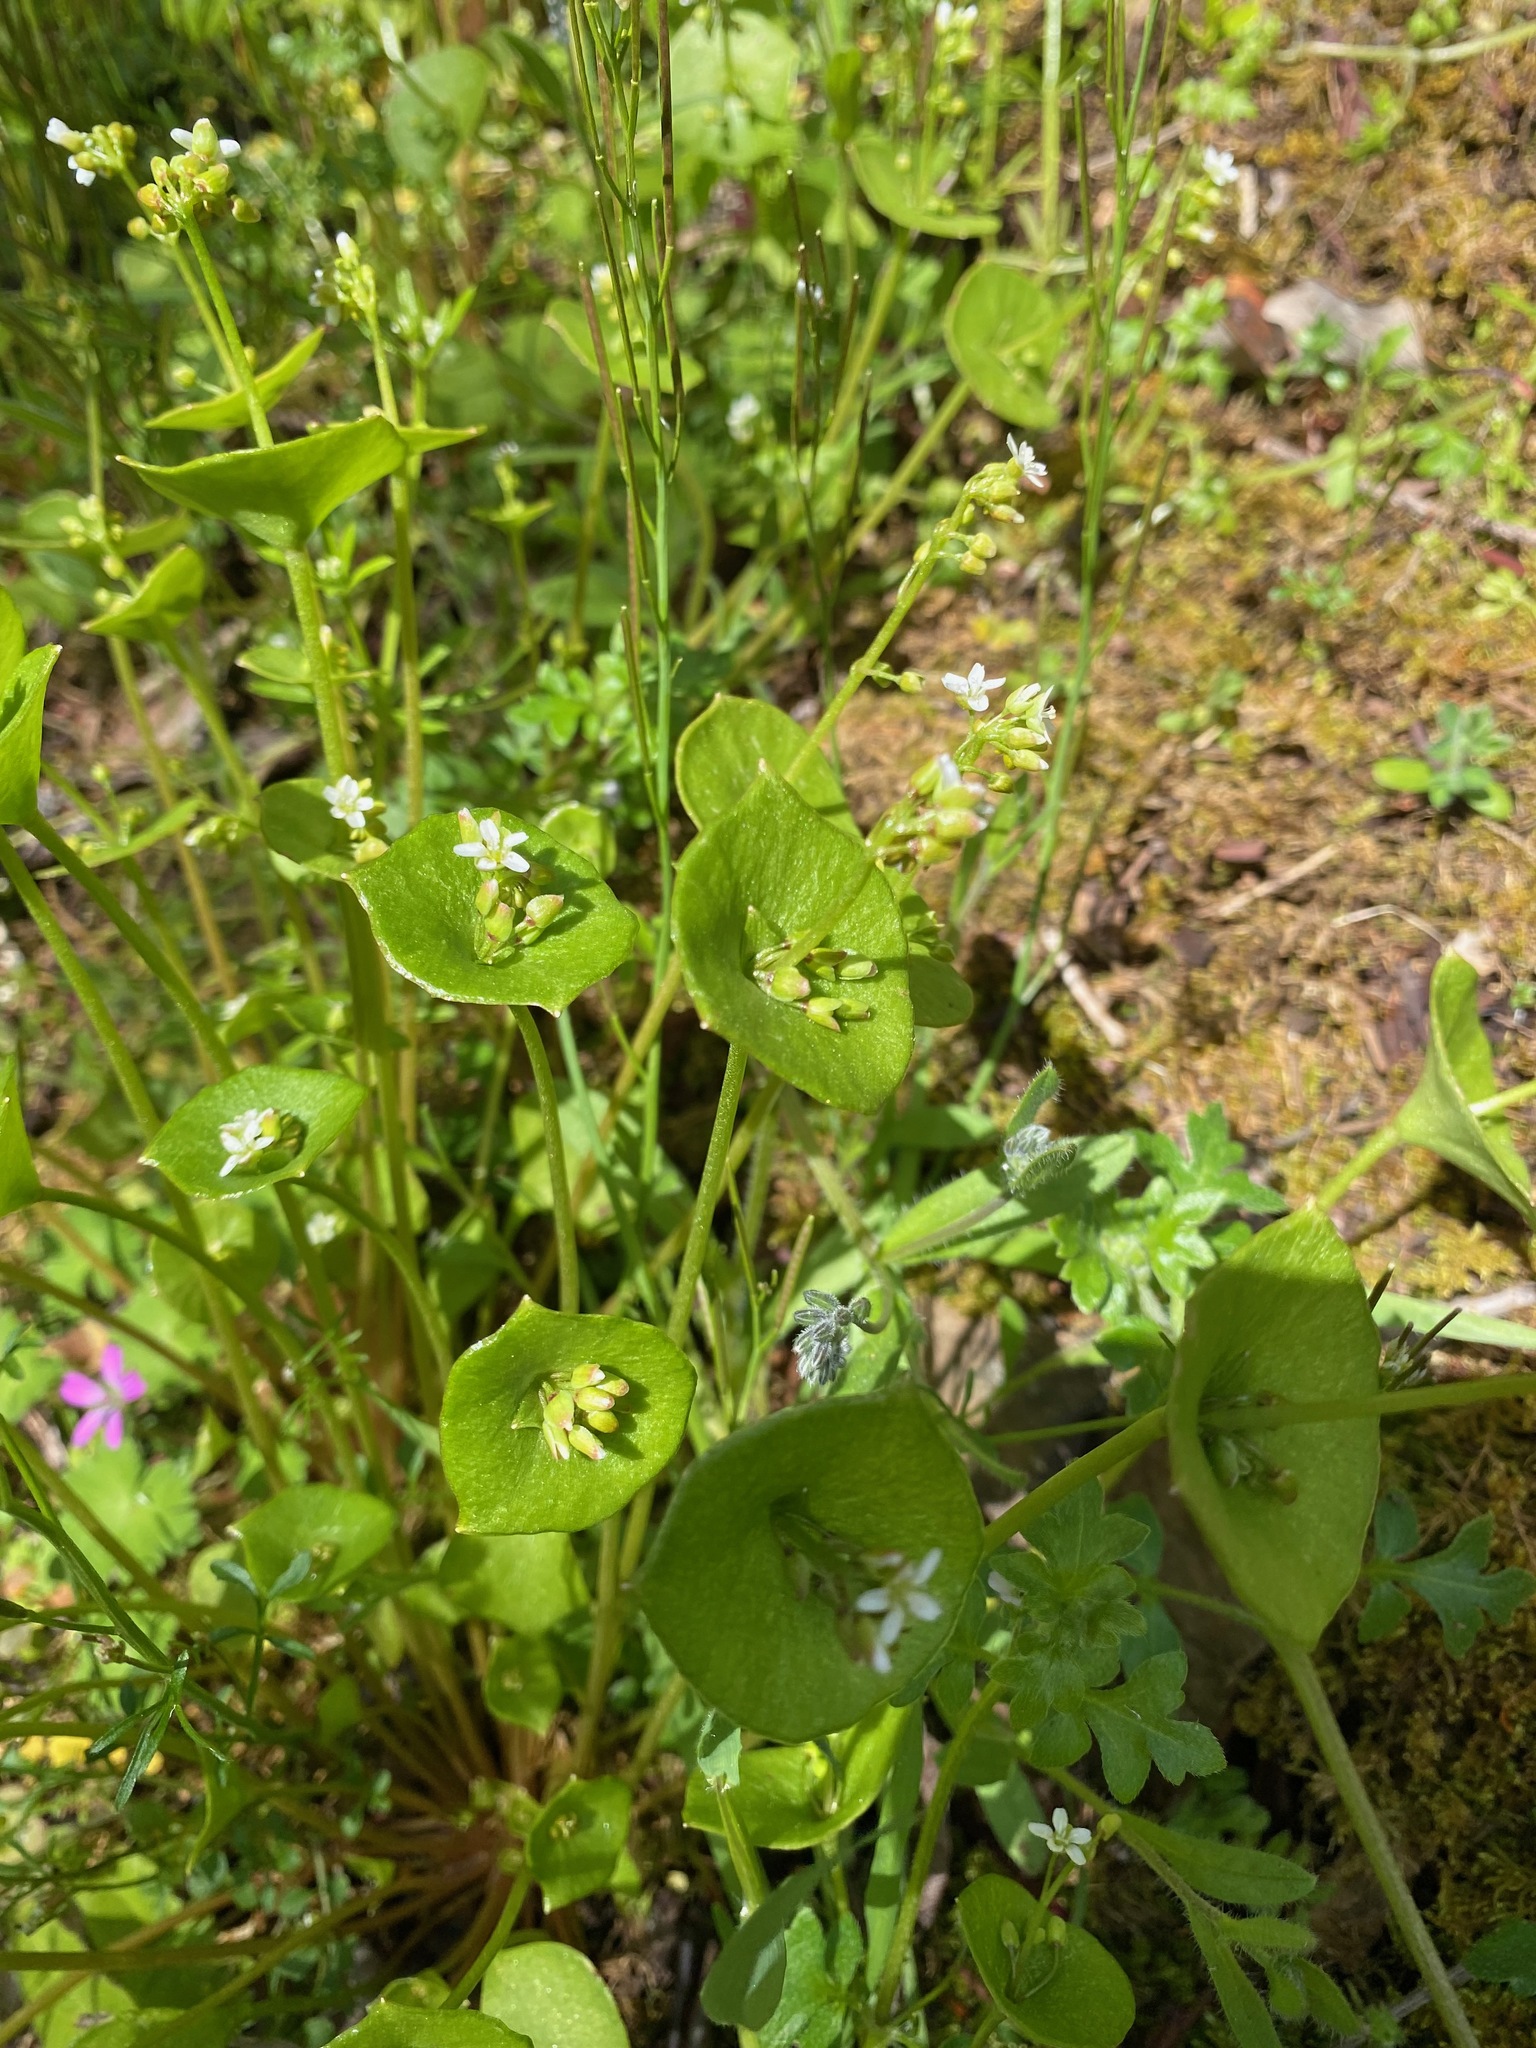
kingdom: Plantae
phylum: Tracheophyta
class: Magnoliopsida
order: Caryophyllales
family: Montiaceae
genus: Claytonia
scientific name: Claytonia perfoliata
